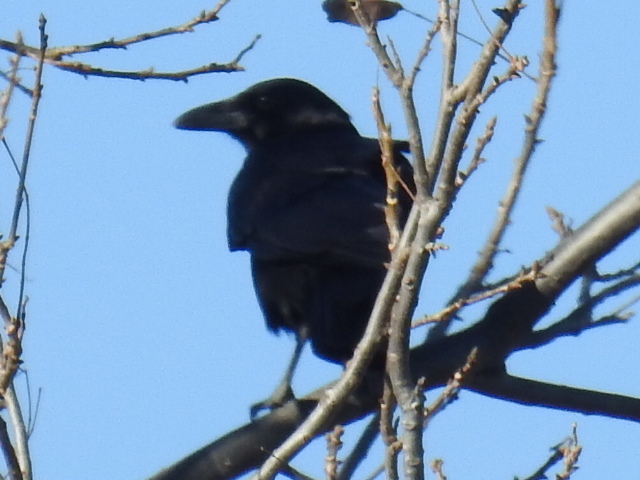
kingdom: Animalia
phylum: Chordata
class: Aves
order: Passeriformes
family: Corvidae
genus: Corvus
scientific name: Corvus brachyrhynchos
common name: American crow
